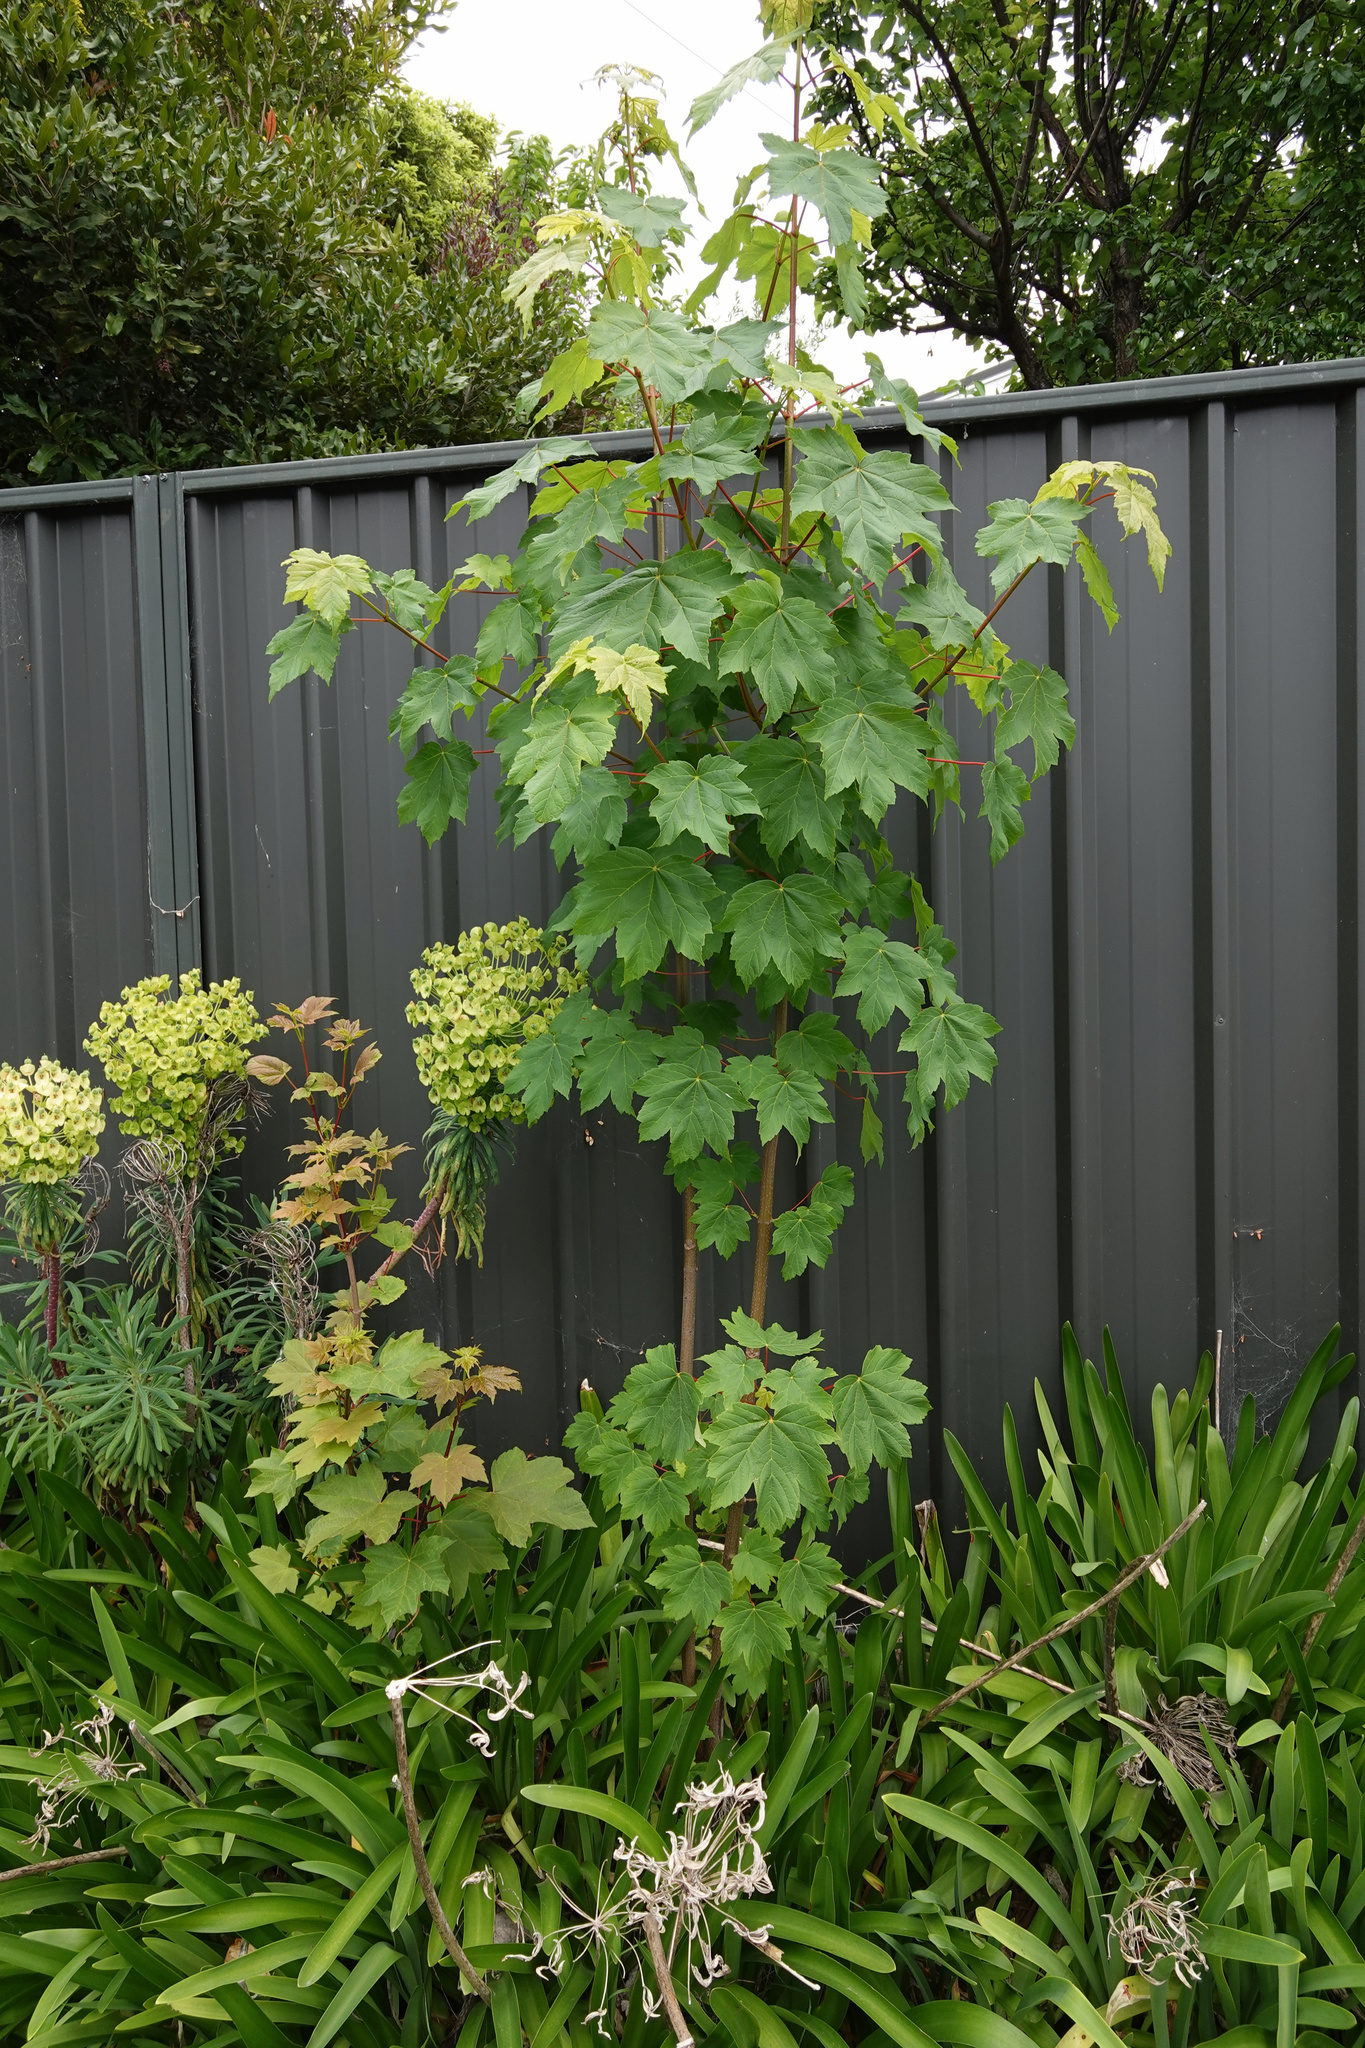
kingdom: Plantae
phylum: Tracheophyta
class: Magnoliopsida
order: Sapindales
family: Sapindaceae
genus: Acer
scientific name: Acer pseudoplatanus
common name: Sycamore
